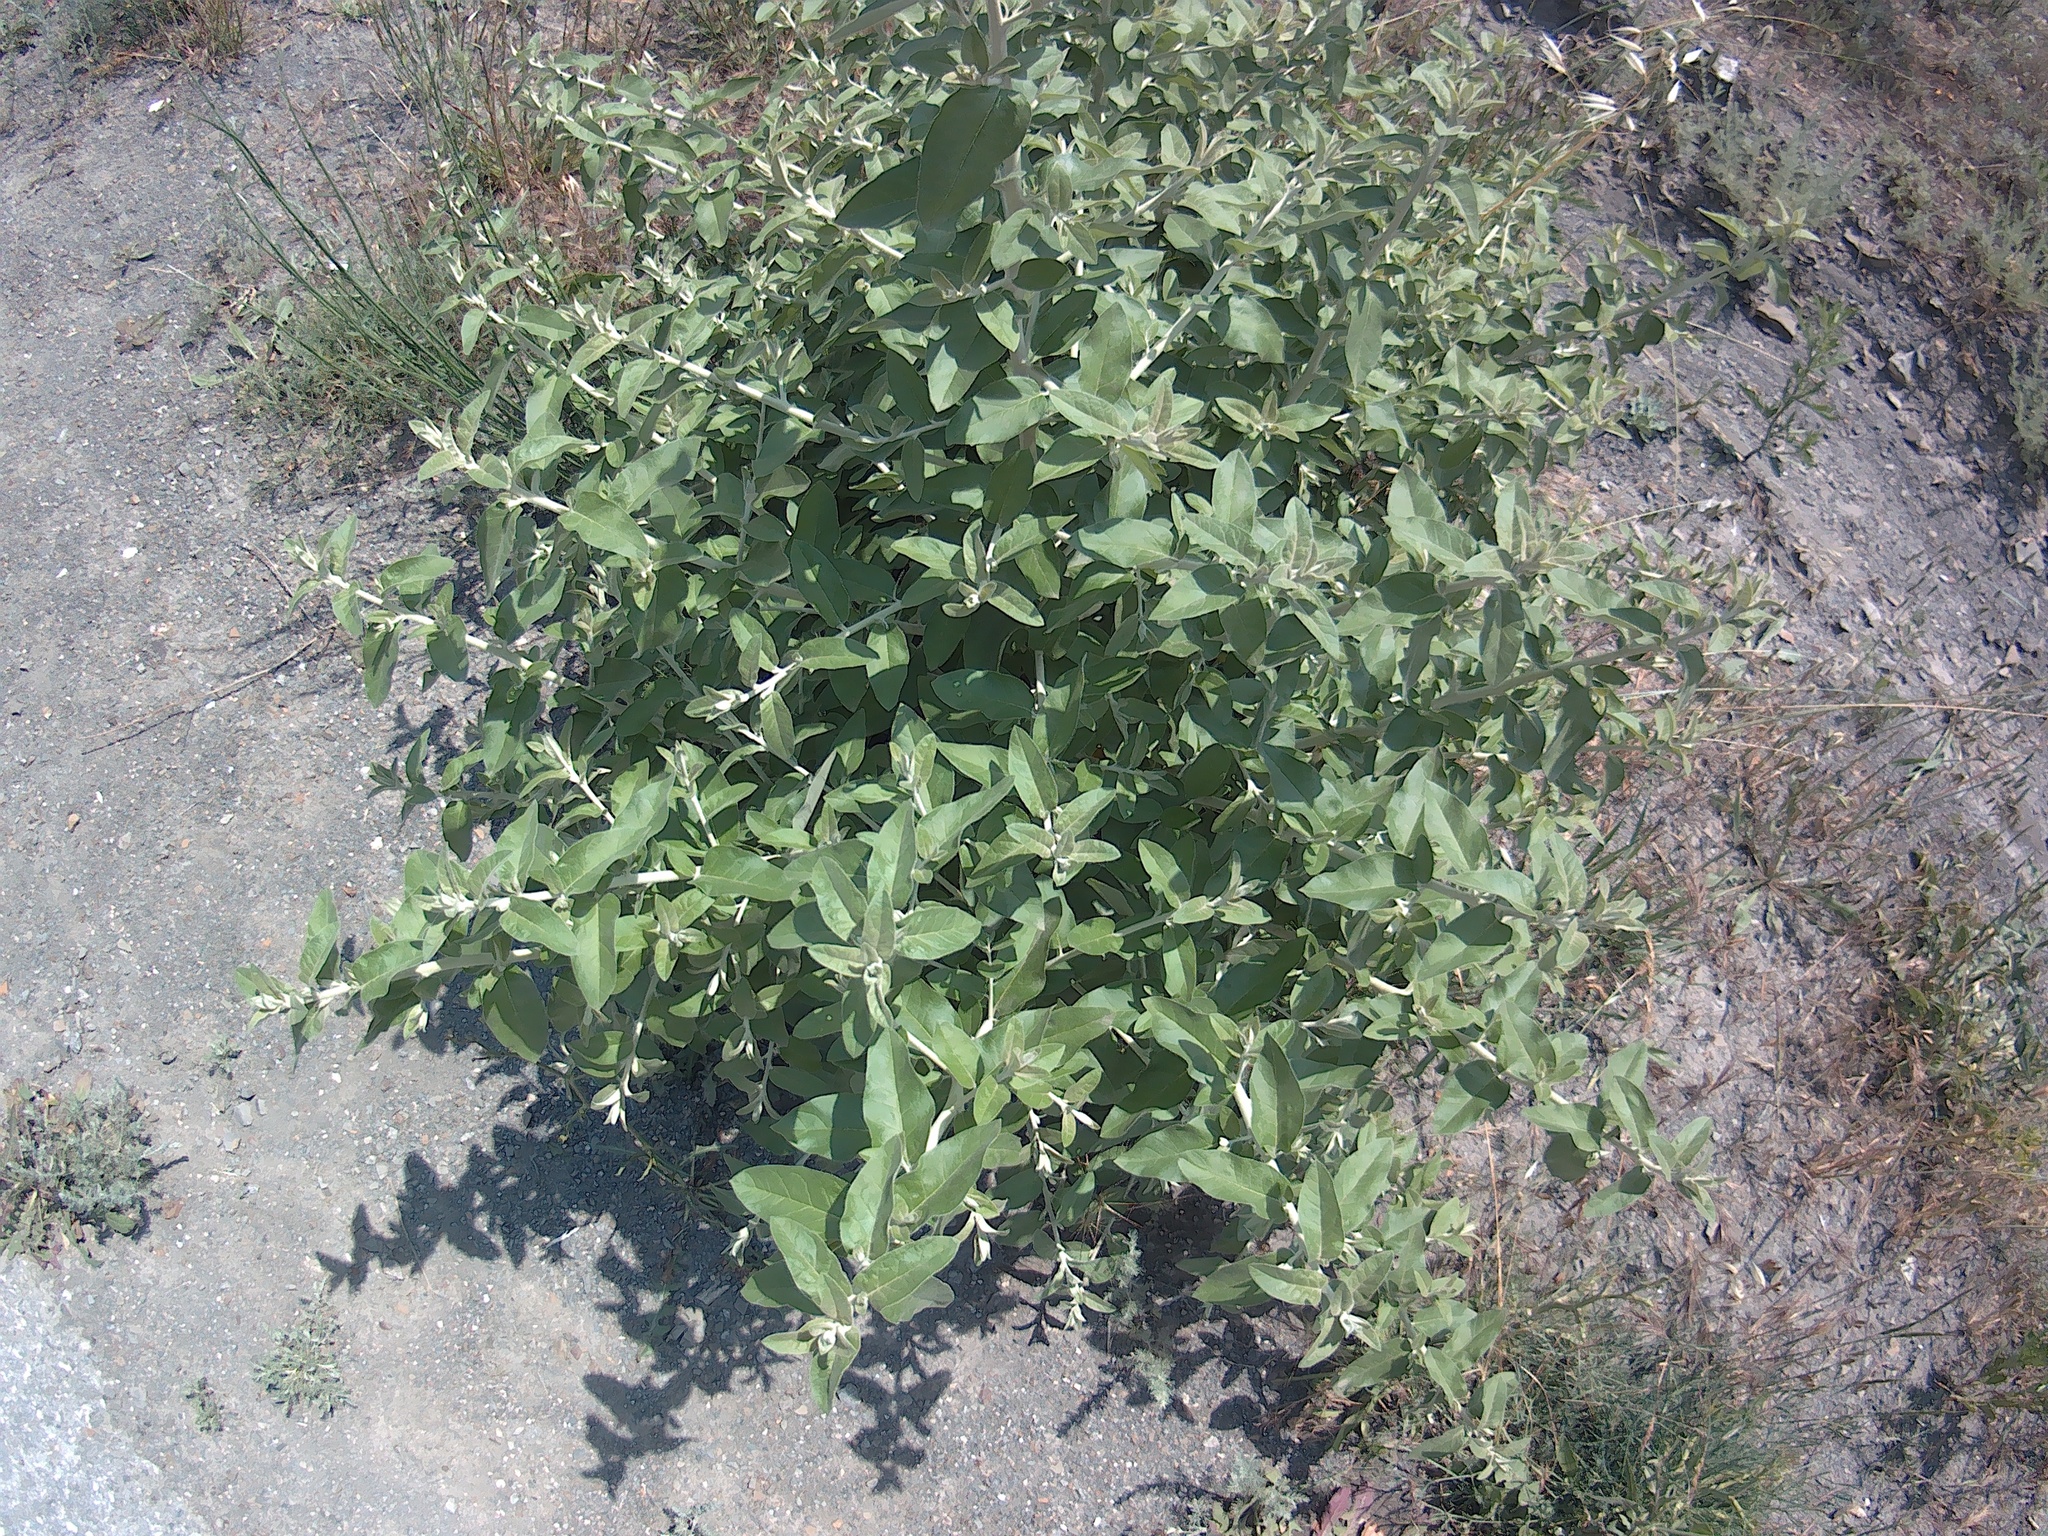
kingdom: Plantae
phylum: Tracheophyta
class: Magnoliopsida
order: Rosales
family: Elaeagnaceae
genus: Elaeagnus
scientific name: Elaeagnus angustifolia
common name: Russian olive
